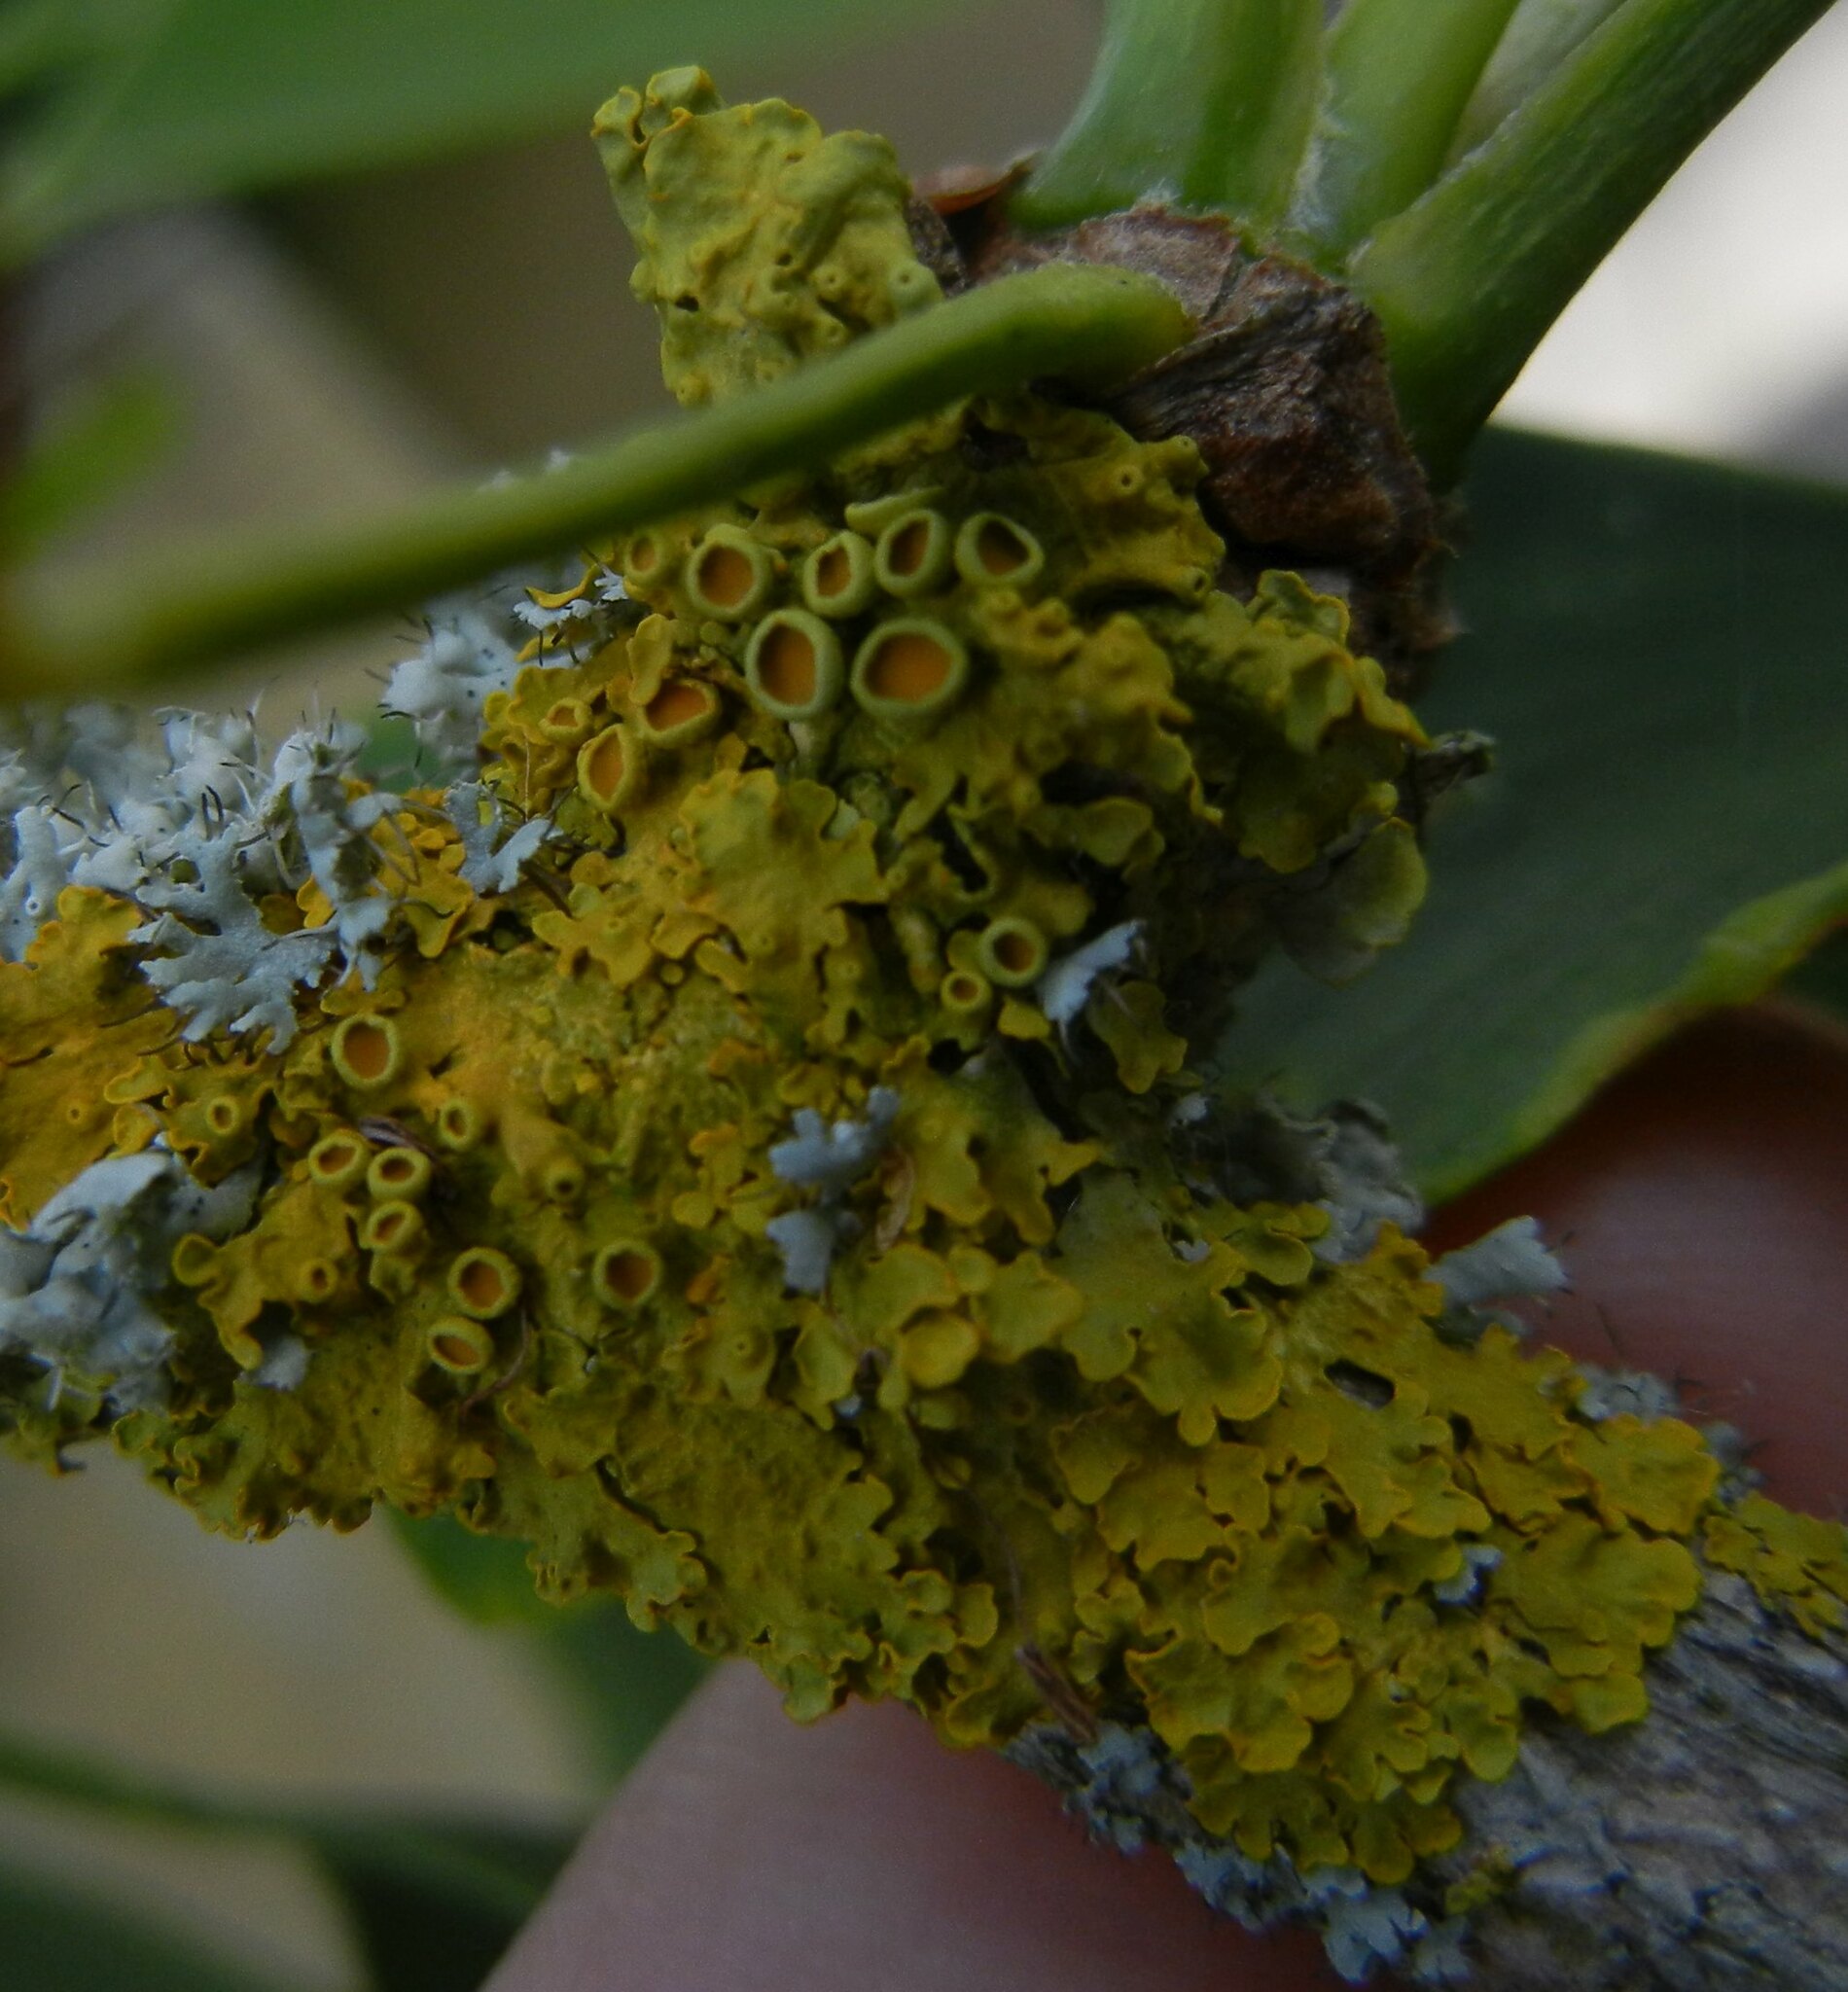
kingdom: Fungi
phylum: Ascomycota
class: Lecanoromycetes
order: Teloschistales
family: Teloschistaceae
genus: Xanthoria
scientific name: Xanthoria parietina
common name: Common orange lichen
